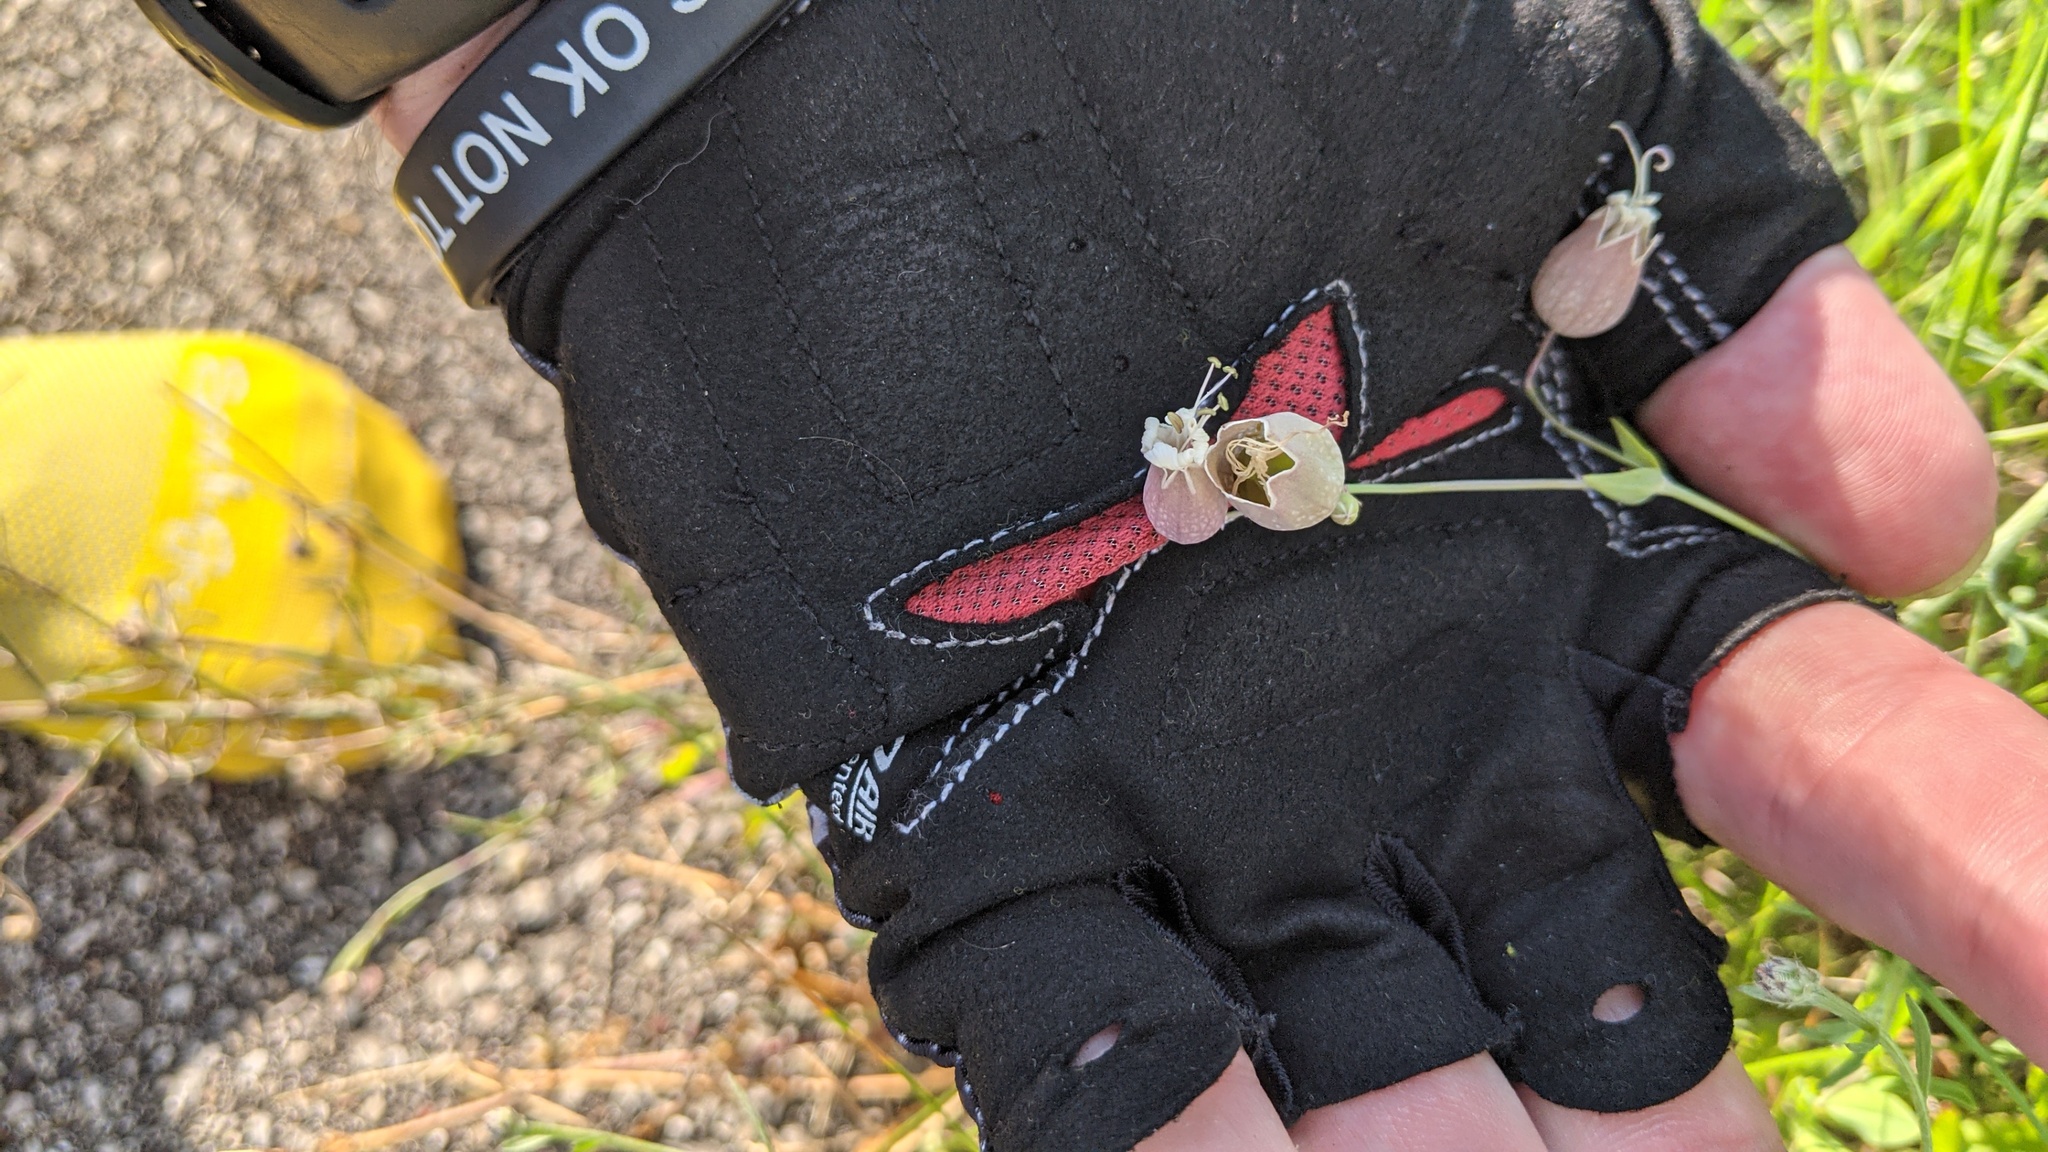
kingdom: Plantae
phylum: Tracheophyta
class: Magnoliopsida
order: Caryophyllales
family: Caryophyllaceae
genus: Silene
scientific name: Silene vulgaris
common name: Bladder campion
